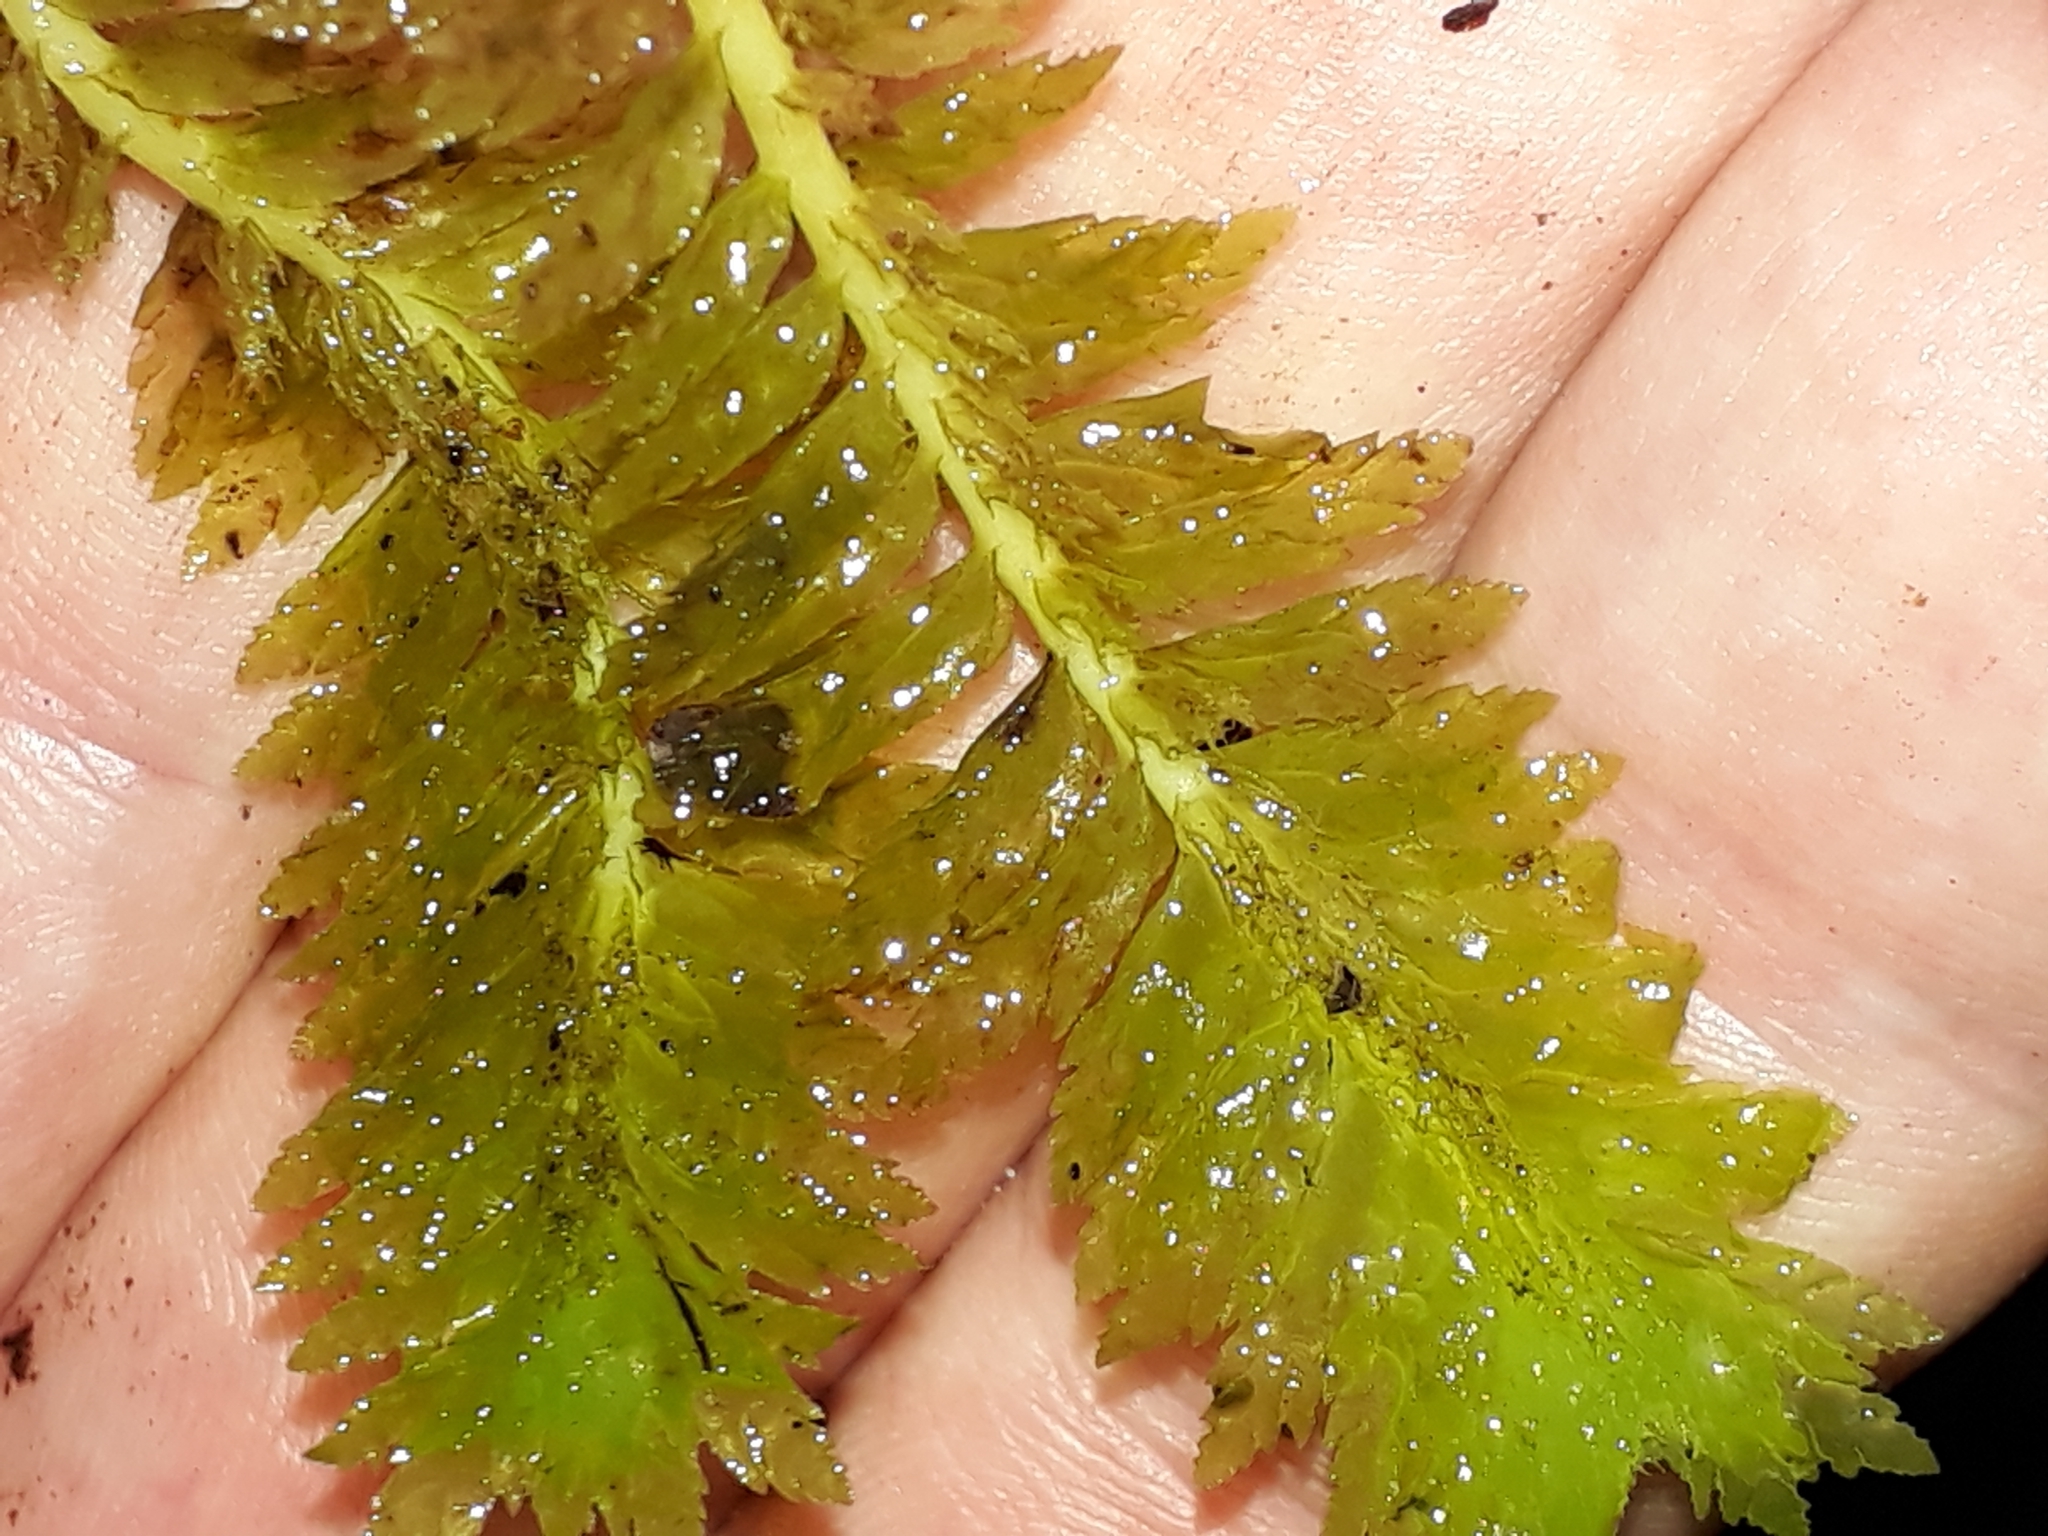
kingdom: Plantae
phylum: Marchantiophyta
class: Jungermanniopsida
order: Jungermanniales
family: Schistochilaceae
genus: Schistochila
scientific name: Schistochila appendiculata
